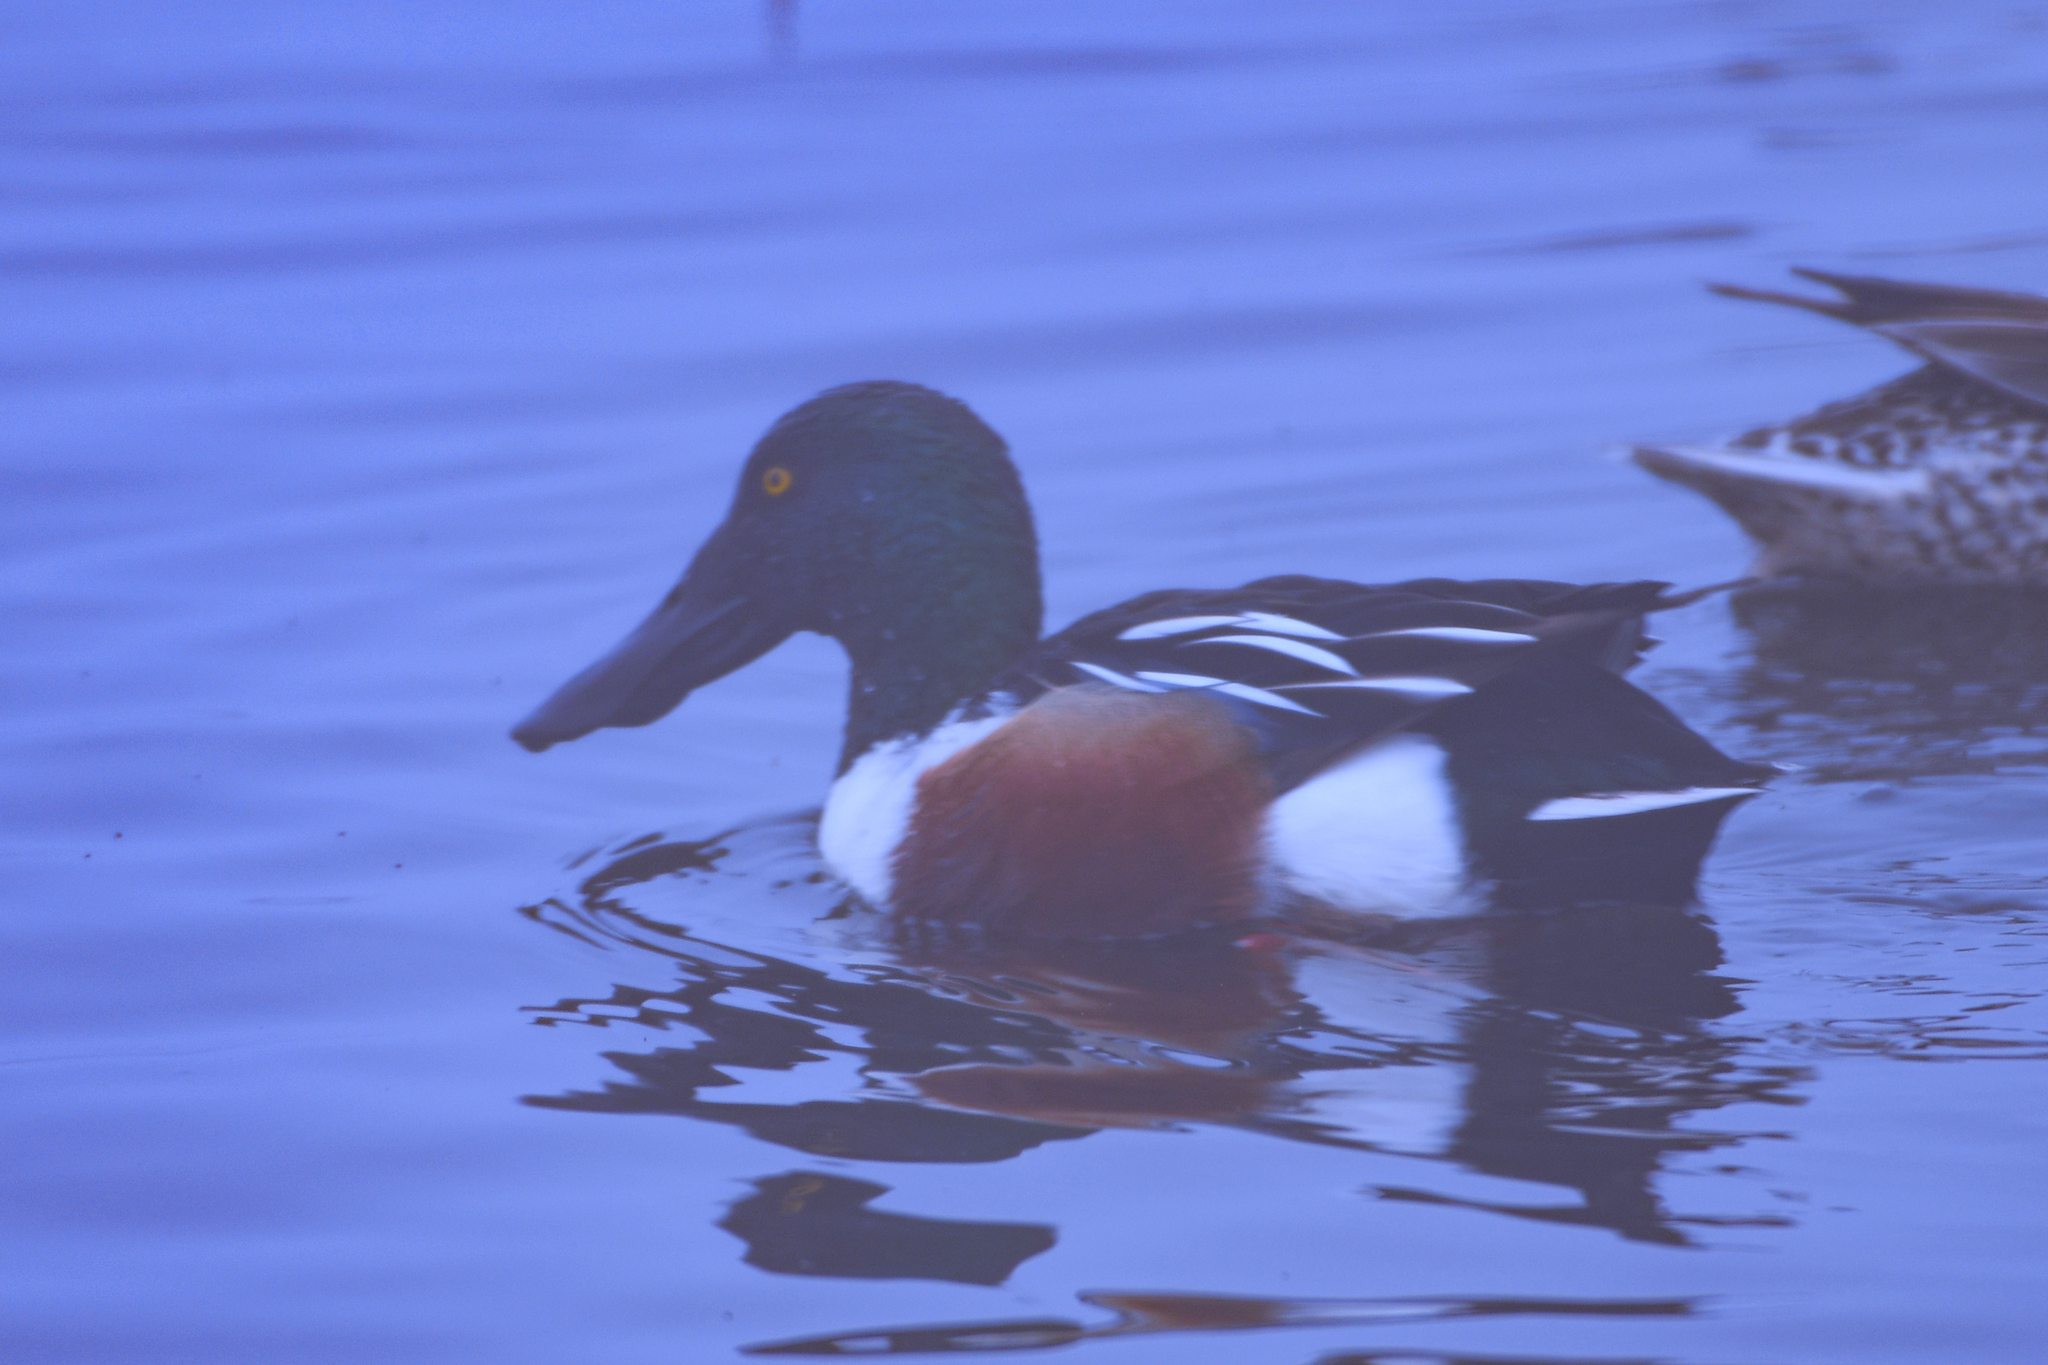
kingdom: Animalia
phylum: Chordata
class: Aves
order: Anseriformes
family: Anatidae
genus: Spatula
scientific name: Spatula clypeata
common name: Northern shoveler
